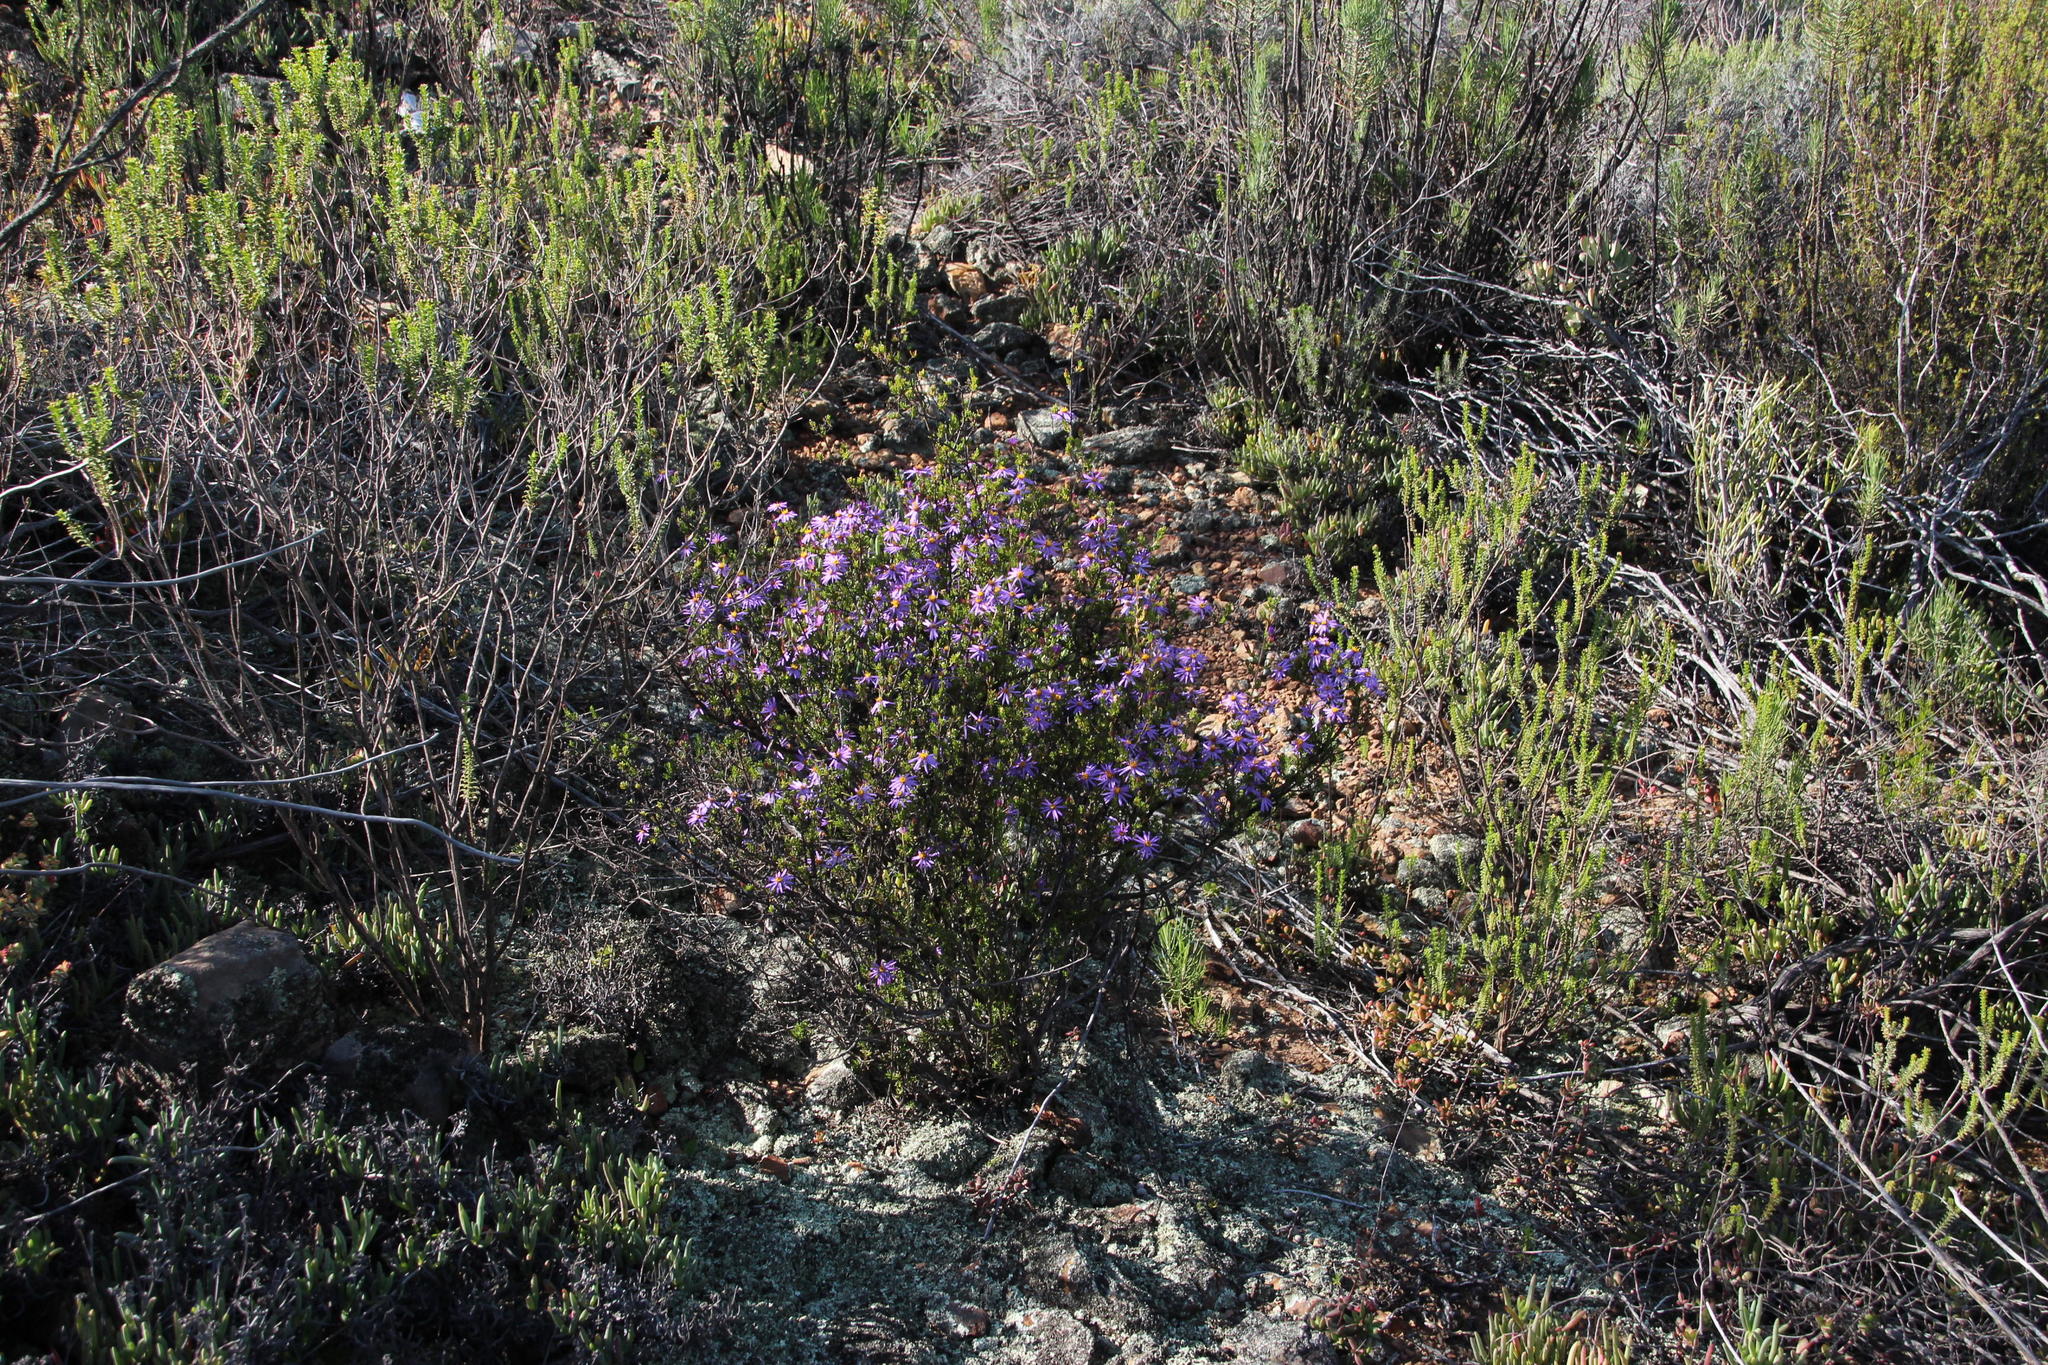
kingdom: Plantae
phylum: Tracheophyta
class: Magnoliopsida
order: Asterales
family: Asteraceae
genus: Felicia
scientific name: Felicia filifolia
